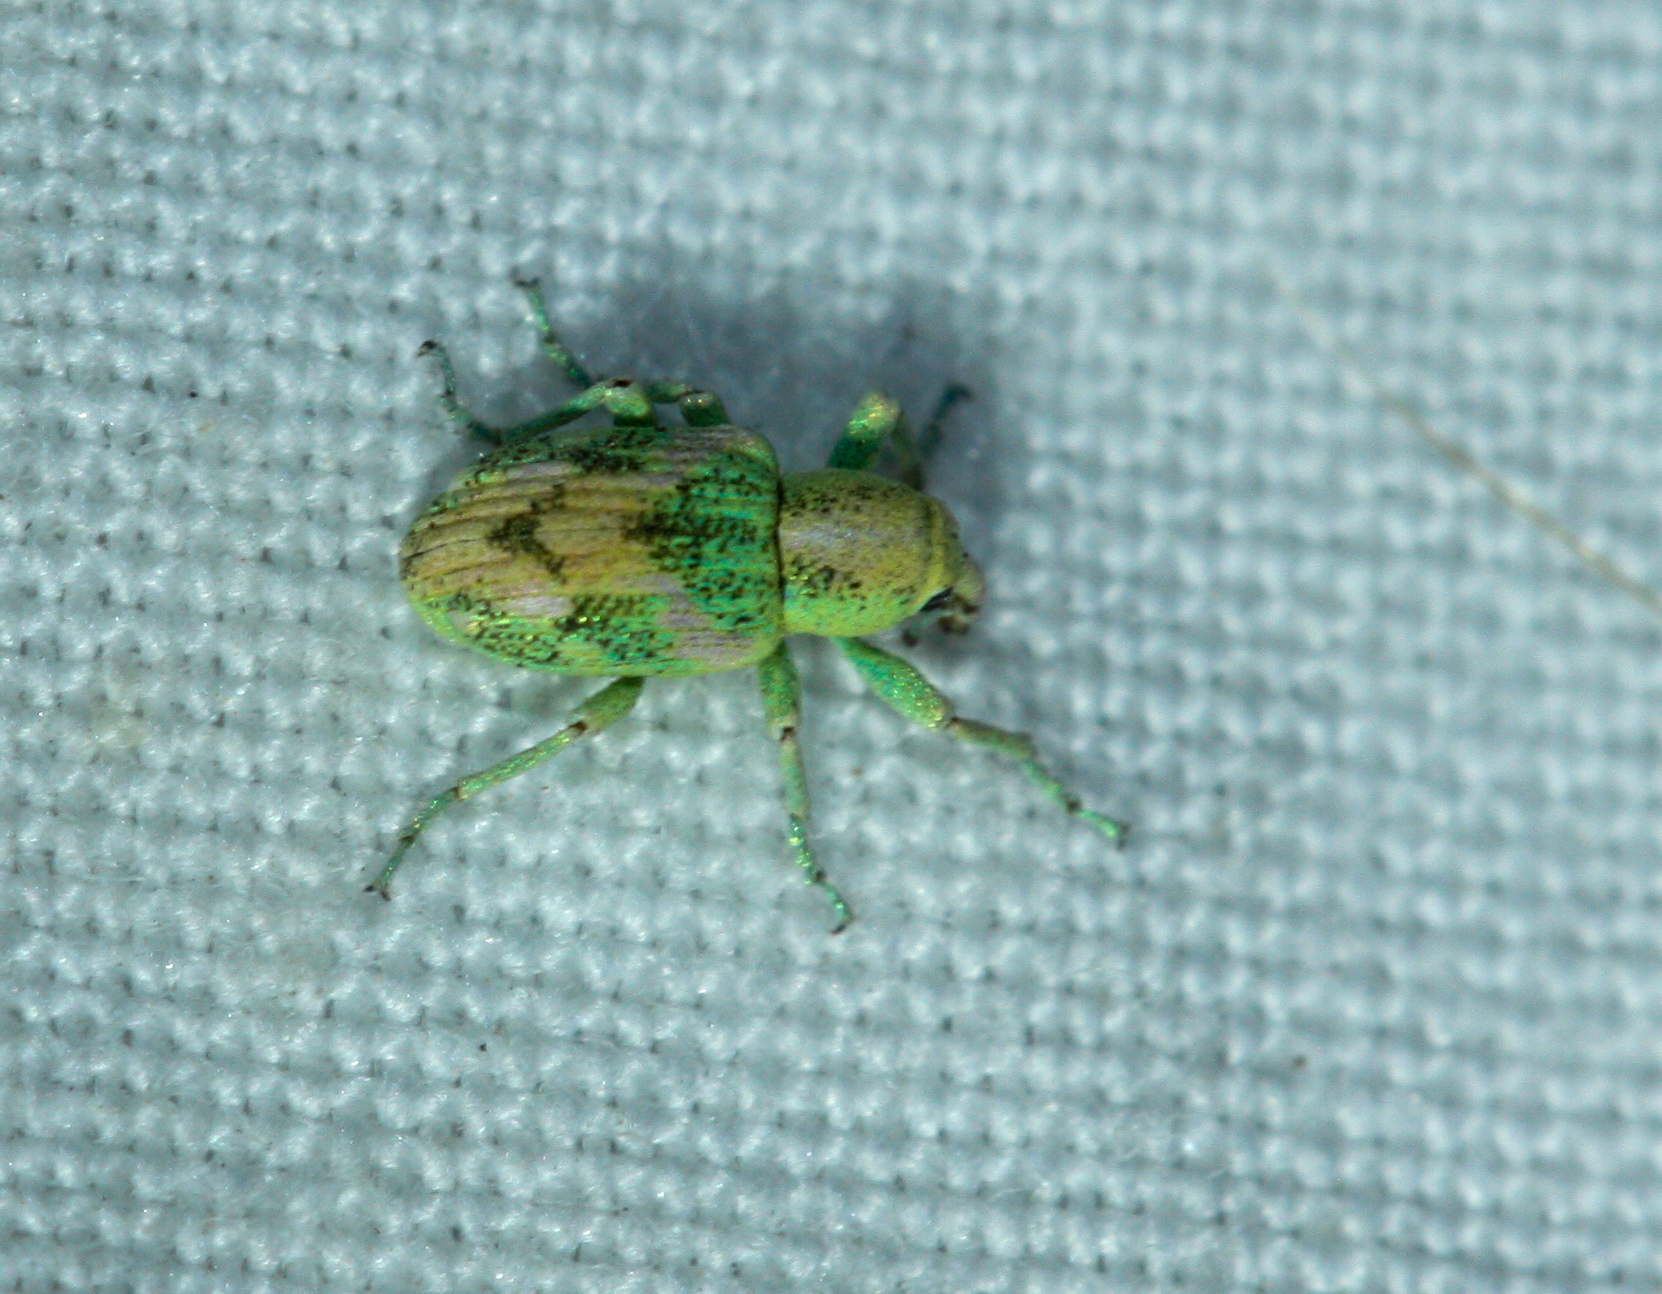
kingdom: Animalia
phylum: Arthropoda
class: Insecta
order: Coleoptera
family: Curculionidae
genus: Coniatus
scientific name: Coniatus splendidulus
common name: Splendid tamarisk weevil
